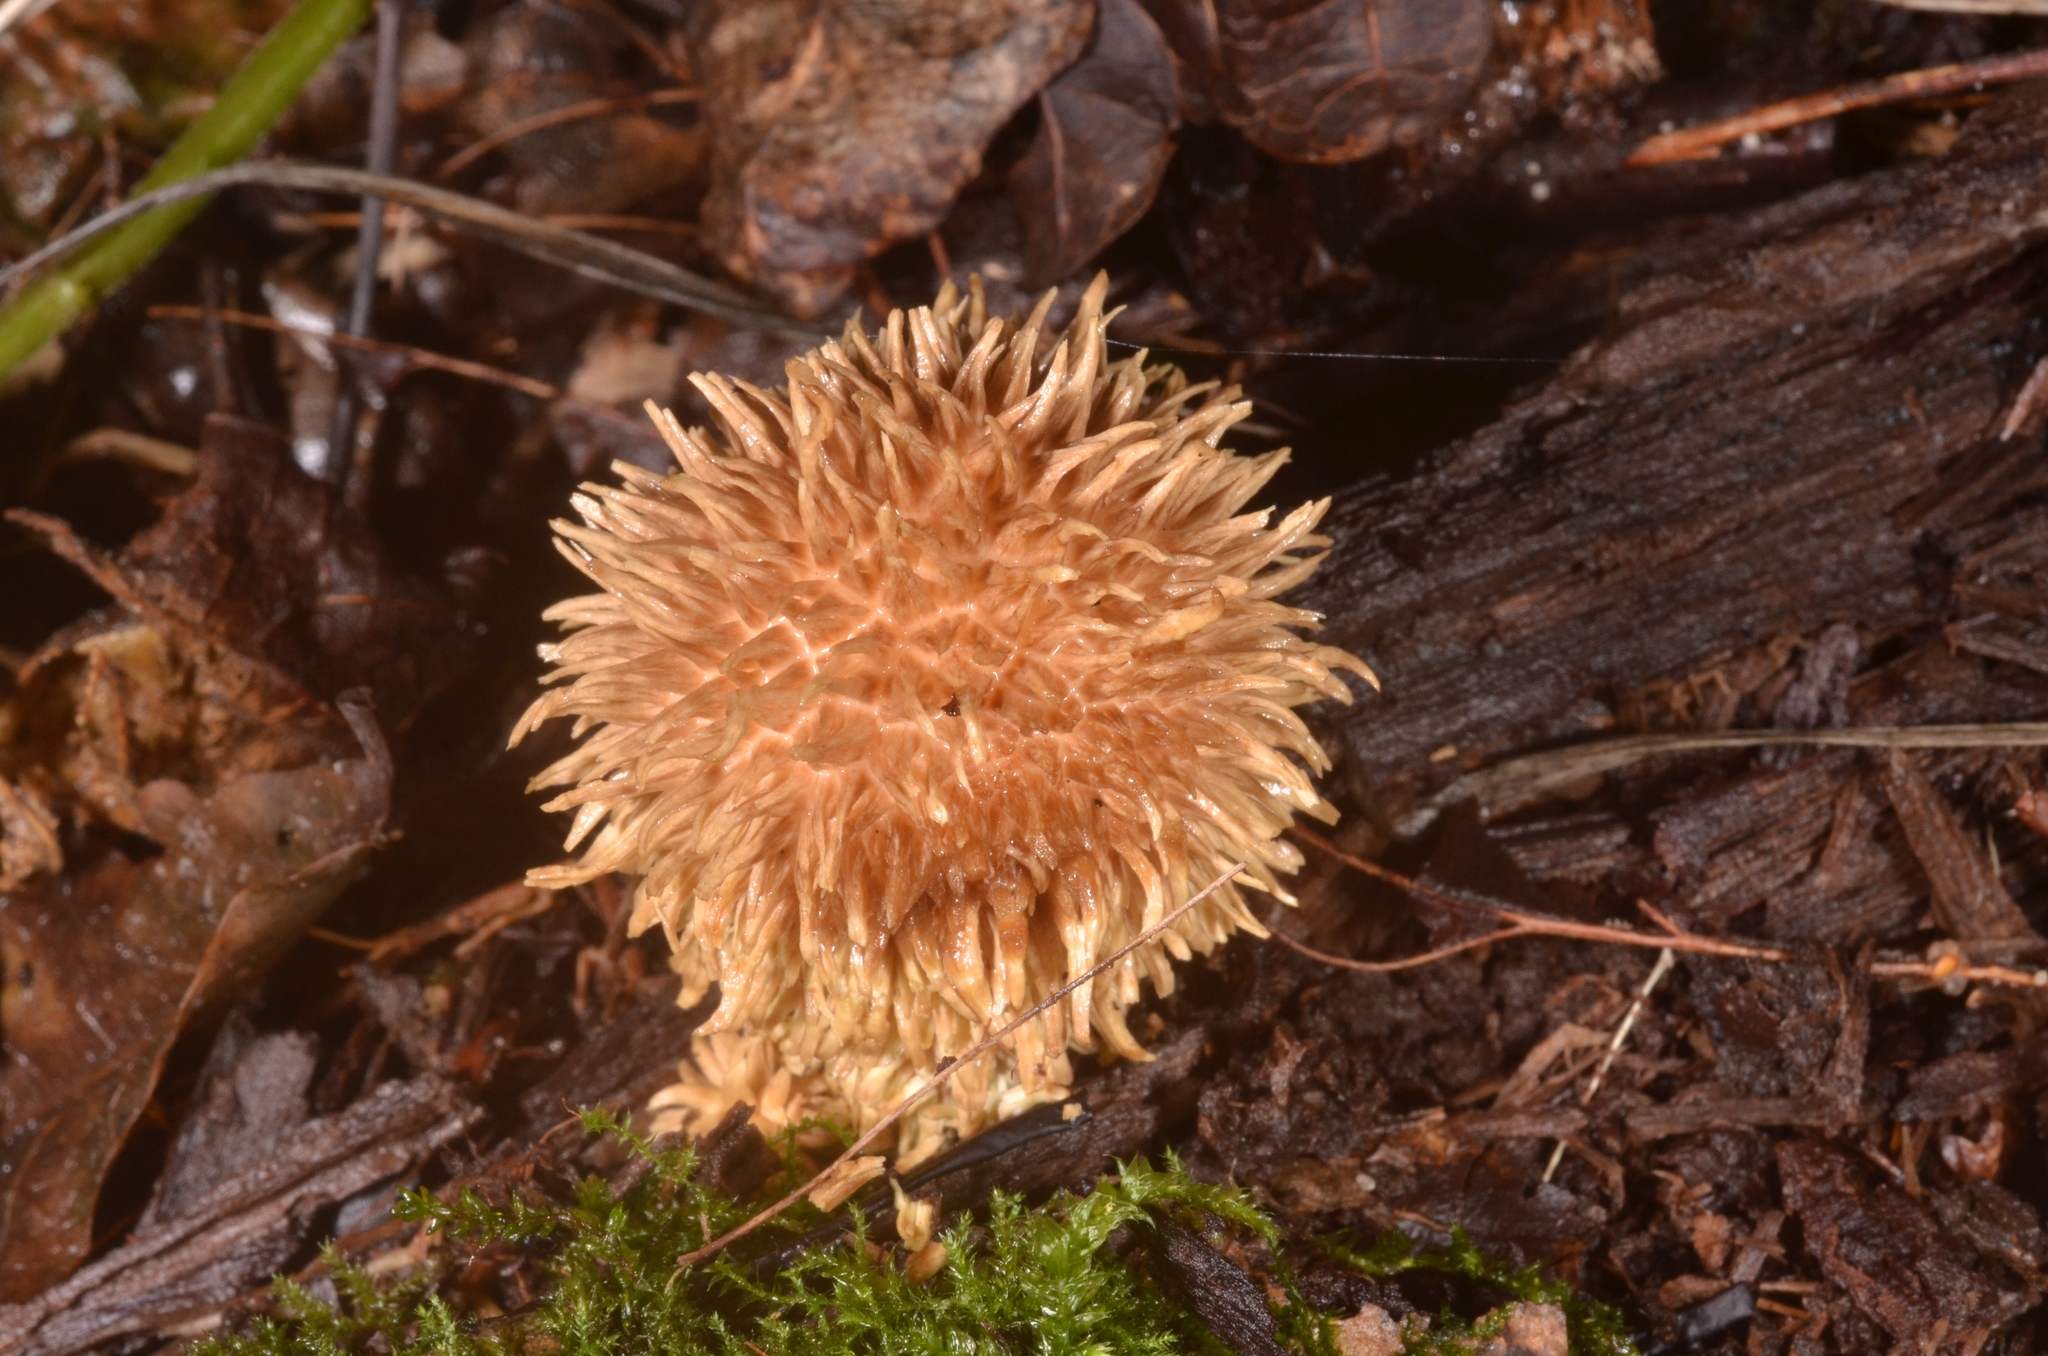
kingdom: Fungi
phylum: Basidiomycota
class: Agaricomycetes
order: Agaricales
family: Lycoperdaceae
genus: Lycoperdon
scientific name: Lycoperdon echinatum
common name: Hedgehog puffball
